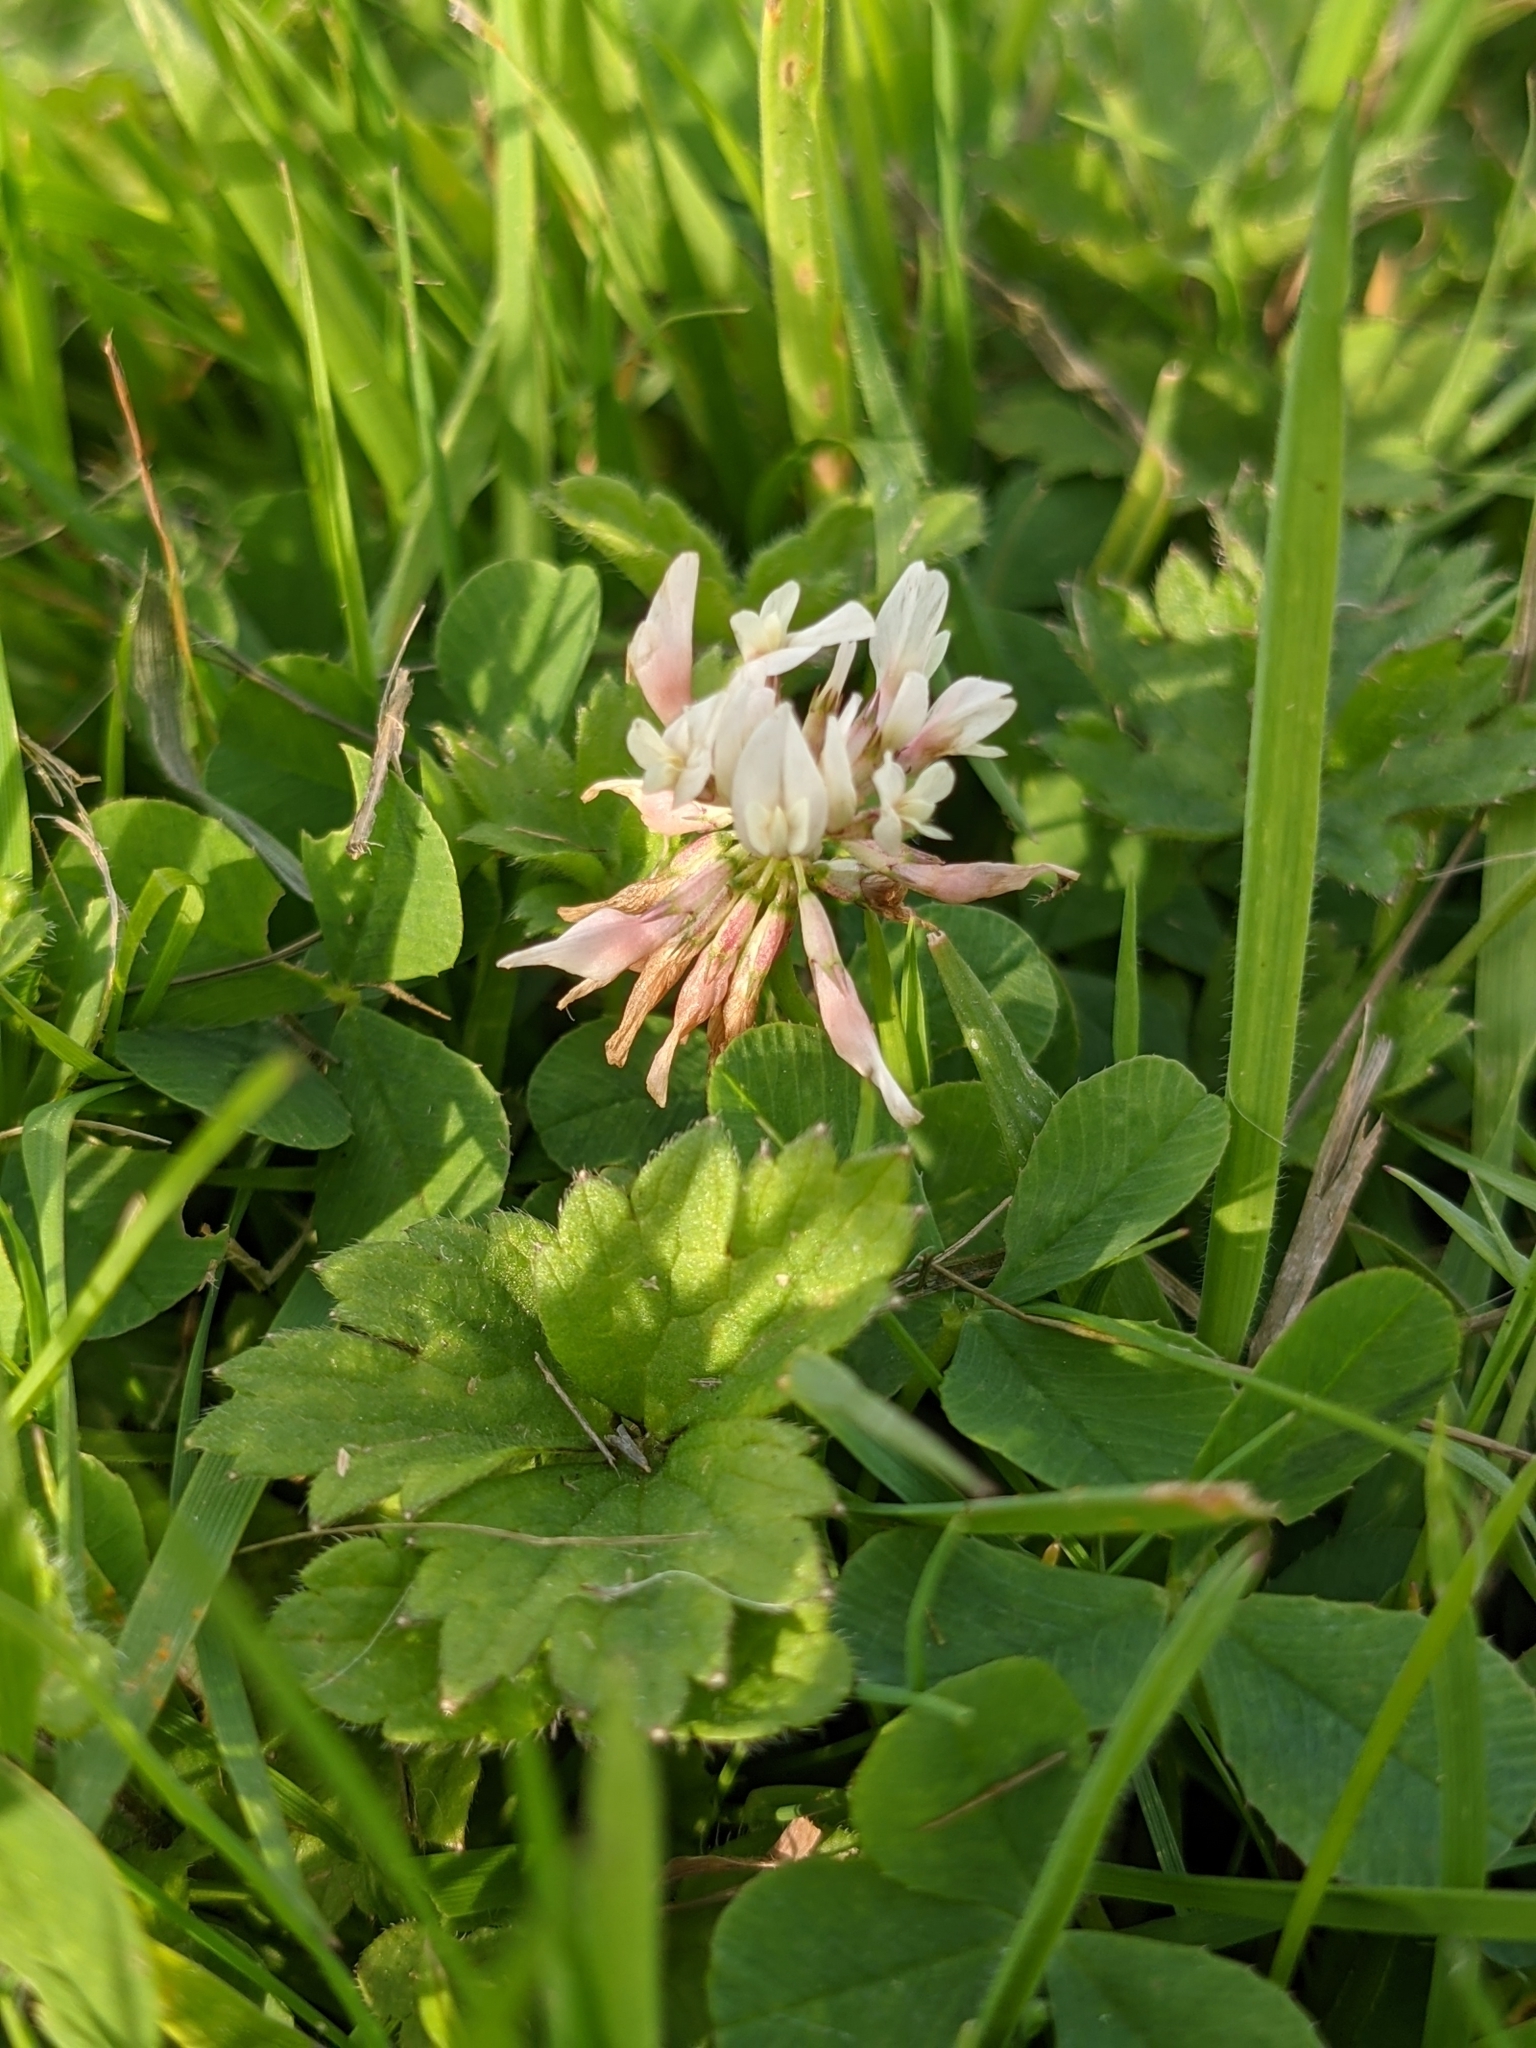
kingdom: Plantae
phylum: Tracheophyta
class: Magnoliopsida
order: Fabales
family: Fabaceae
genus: Trifolium
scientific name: Trifolium repens
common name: White clover
